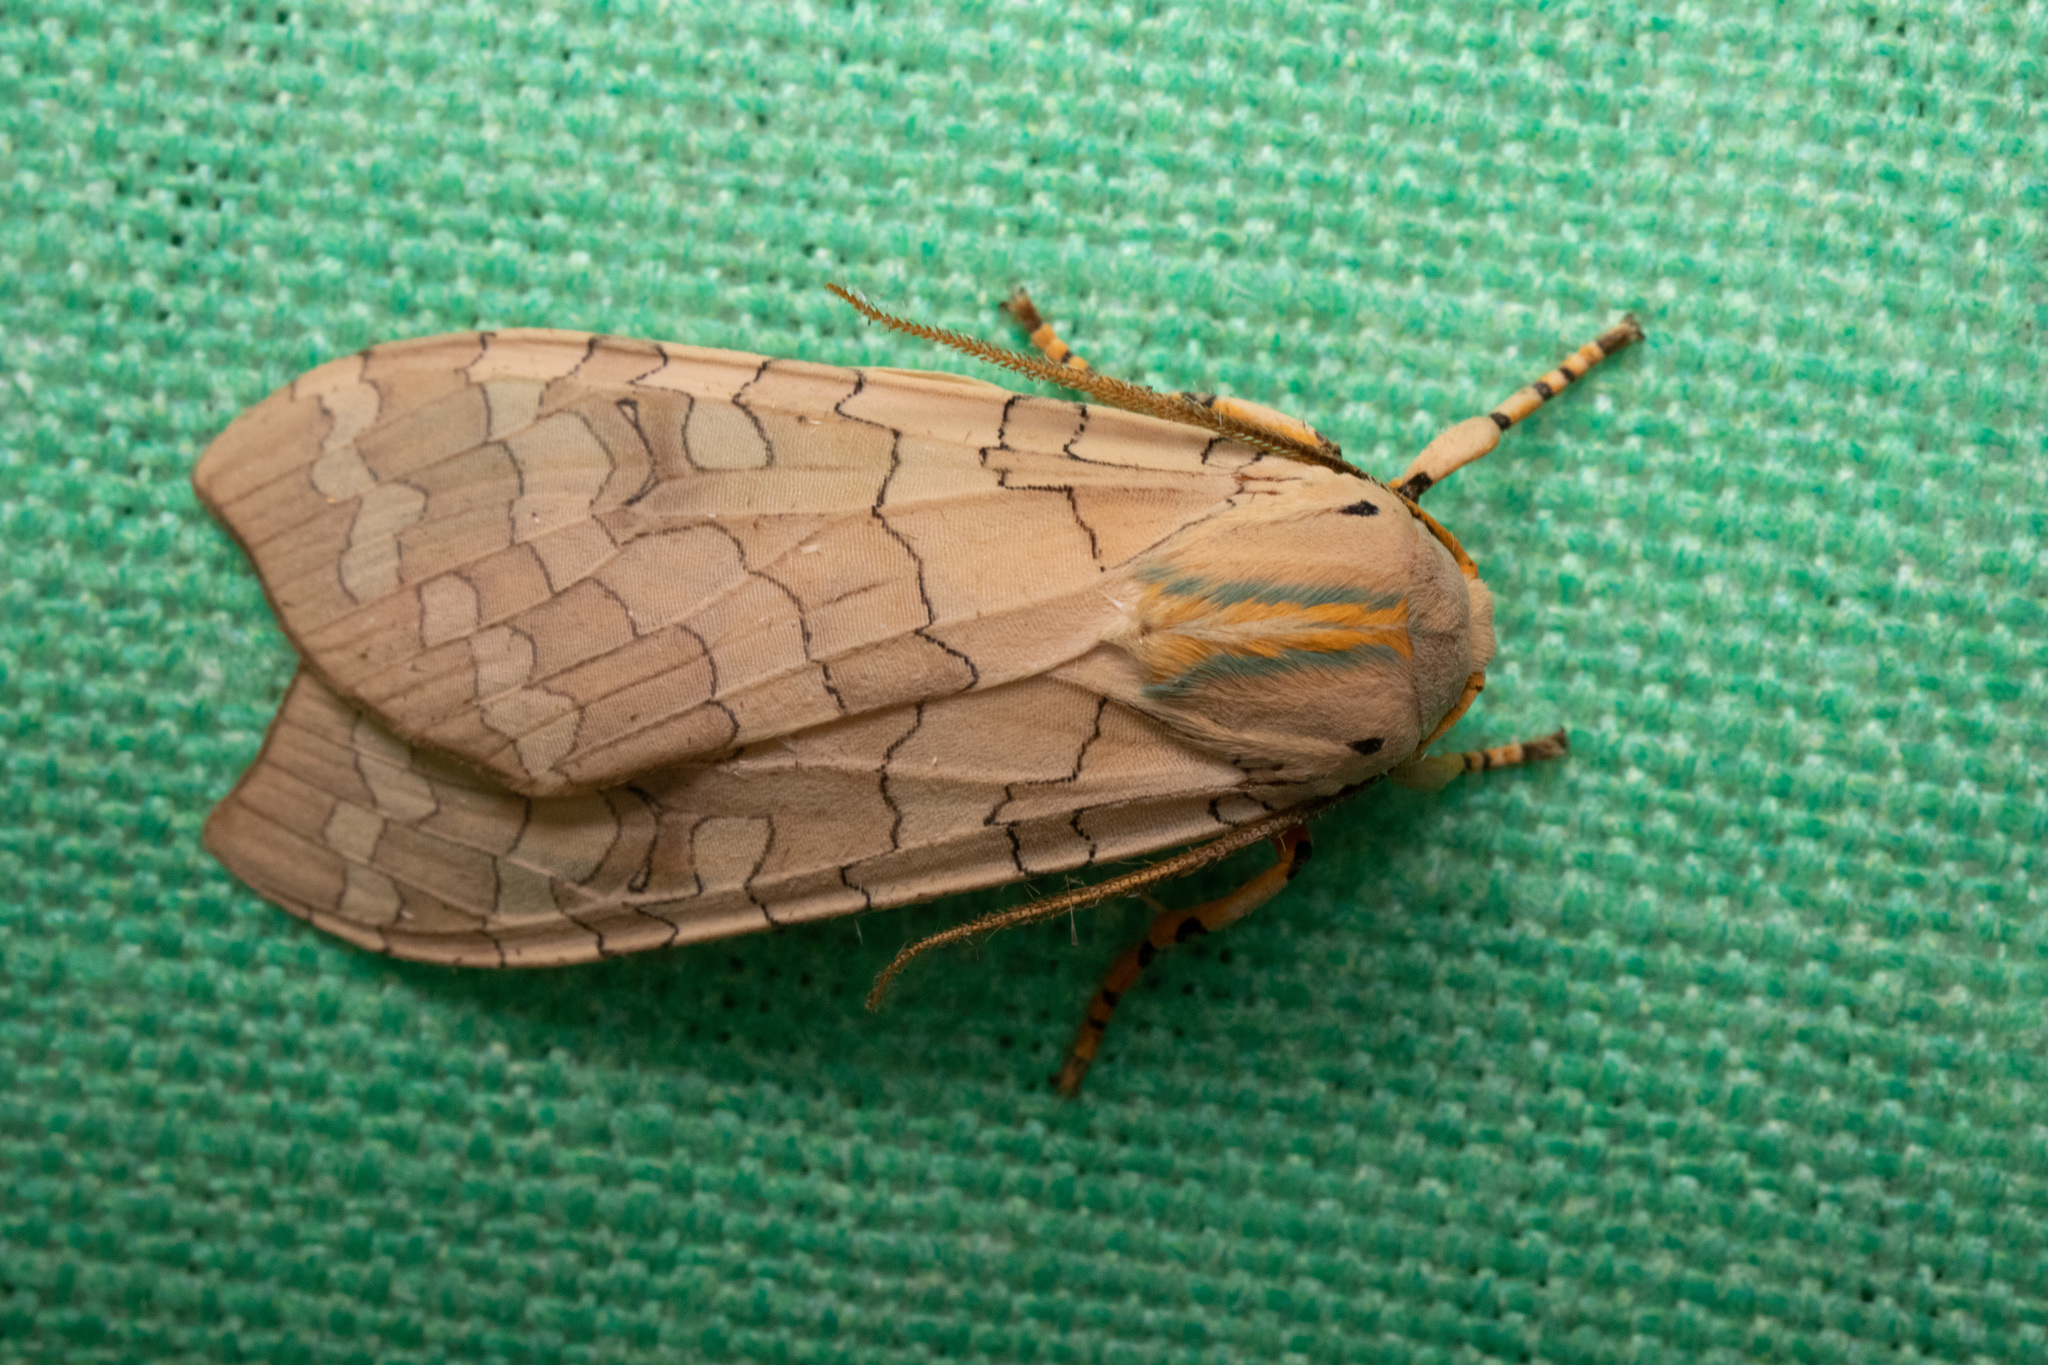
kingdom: Animalia
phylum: Arthropoda
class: Insecta
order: Lepidoptera
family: Erebidae
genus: Halysidota
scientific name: Halysidota
